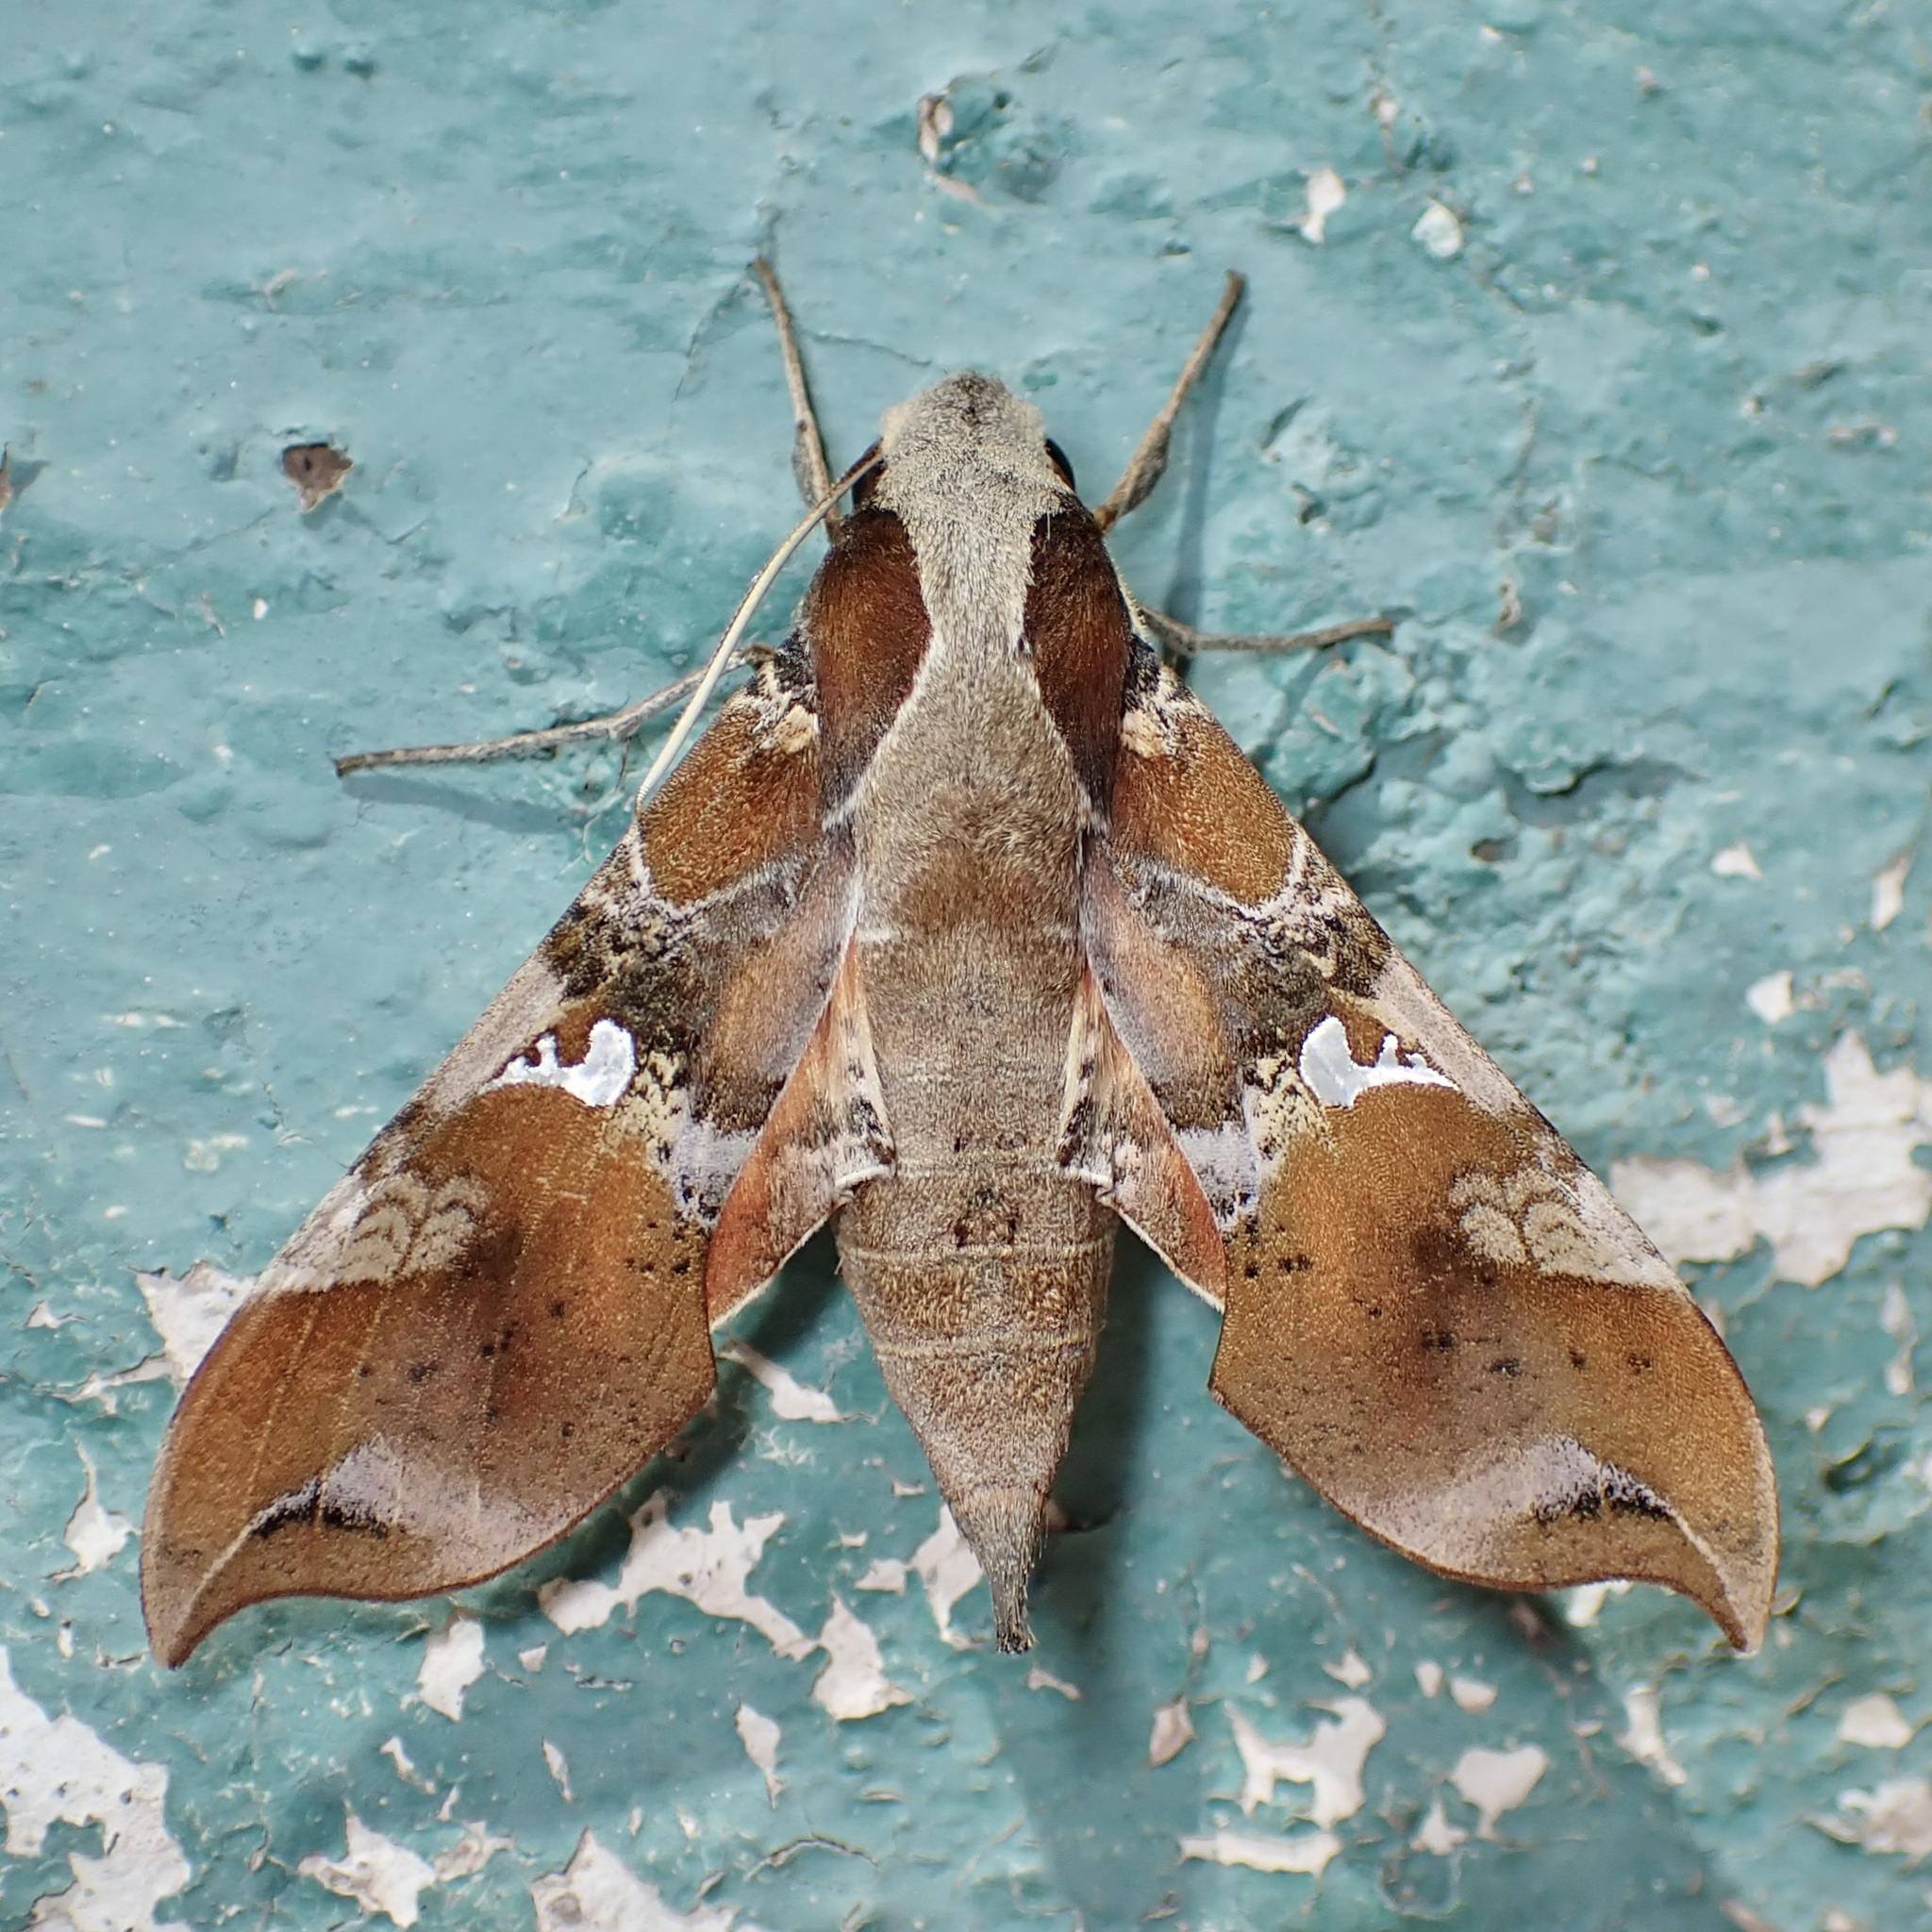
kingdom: Animalia
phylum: Arthropoda
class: Insecta
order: Lepidoptera
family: Sphingidae
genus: Callionima
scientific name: Callionima falcifera
